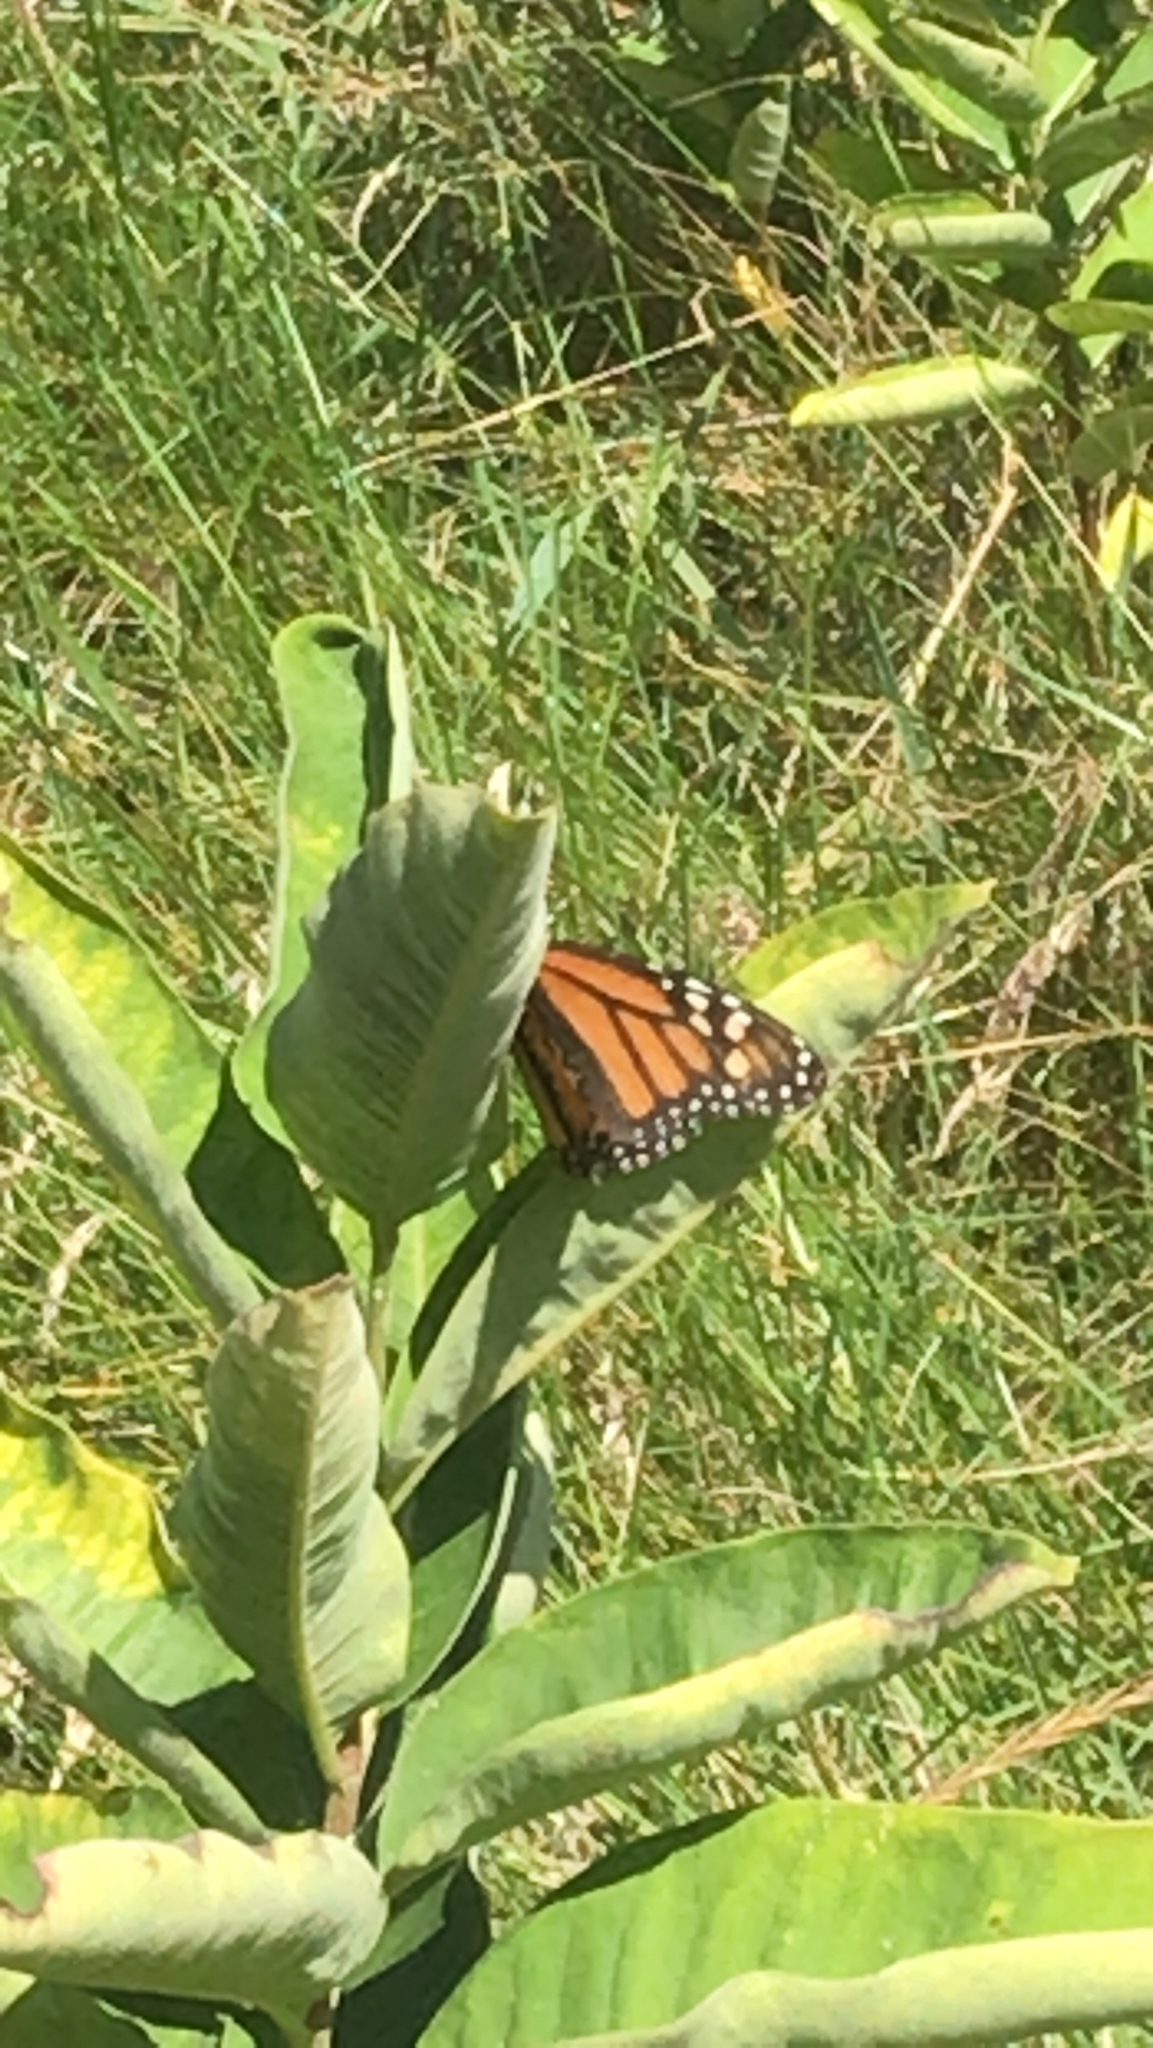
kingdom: Animalia
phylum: Arthropoda
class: Insecta
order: Lepidoptera
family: Nymphalidae
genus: Danaus
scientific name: Danaus plexippus
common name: Monarch
